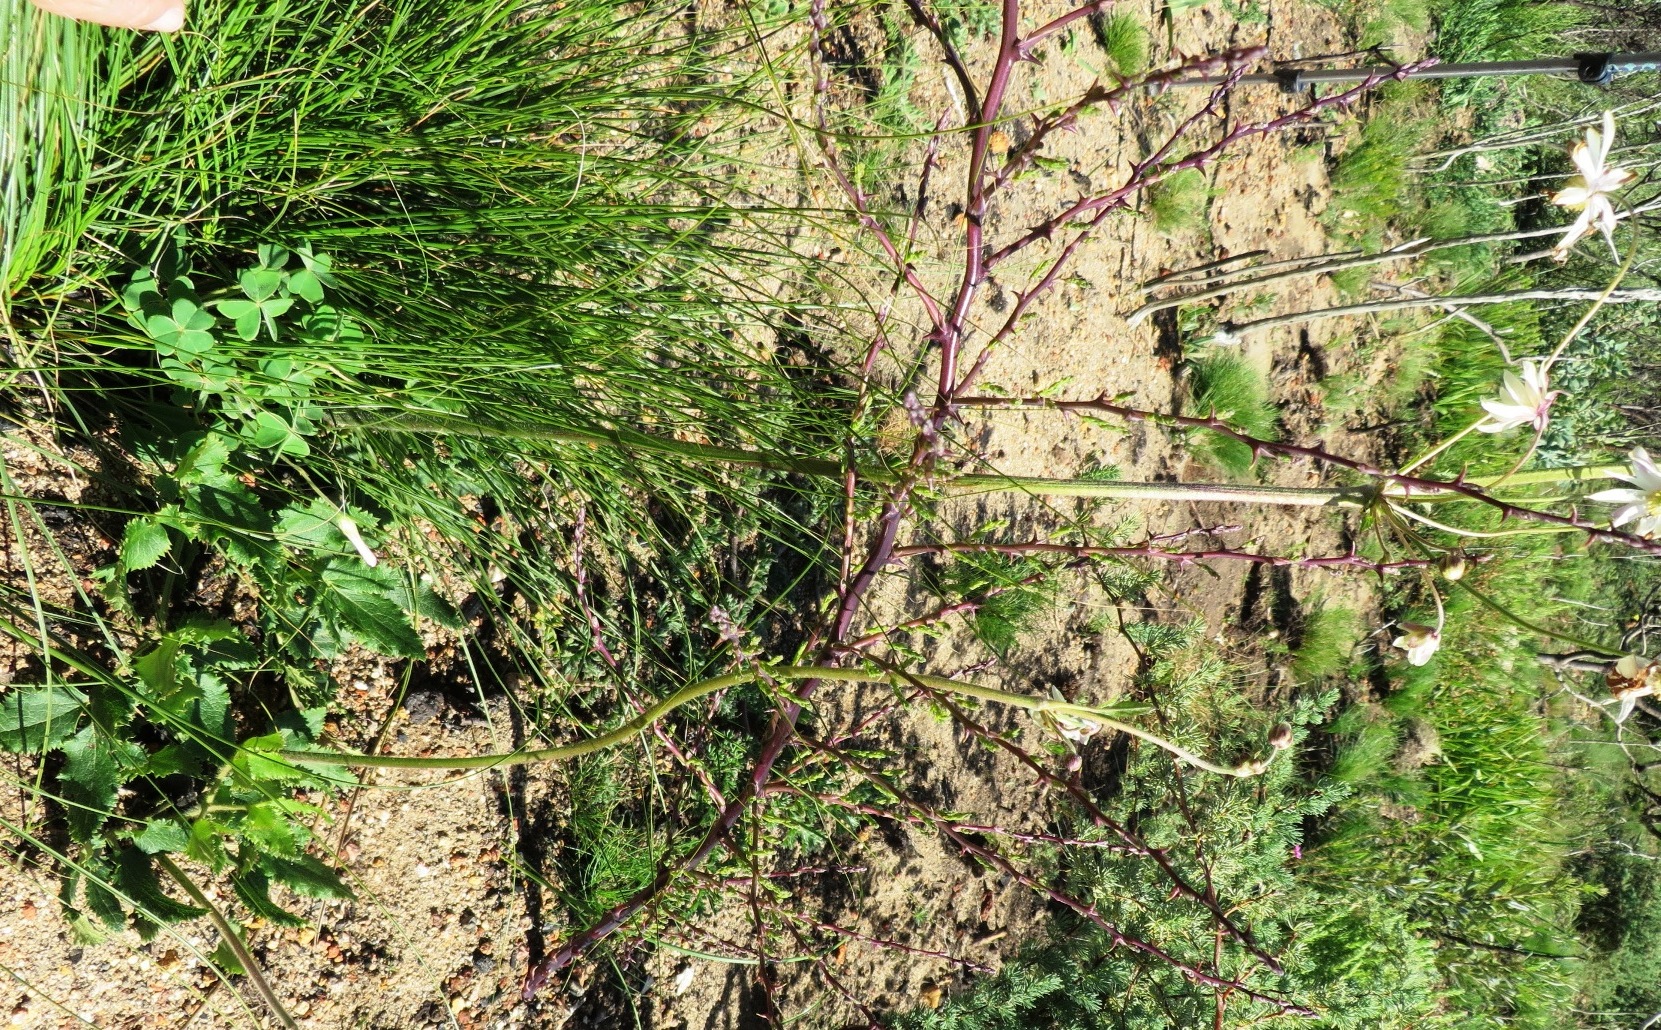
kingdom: Plantae
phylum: Tracheophyta
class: Magnoliopsida
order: Ranunculales
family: Ranunculaceae
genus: Knowltonia
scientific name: Knowltonia anemonoides
